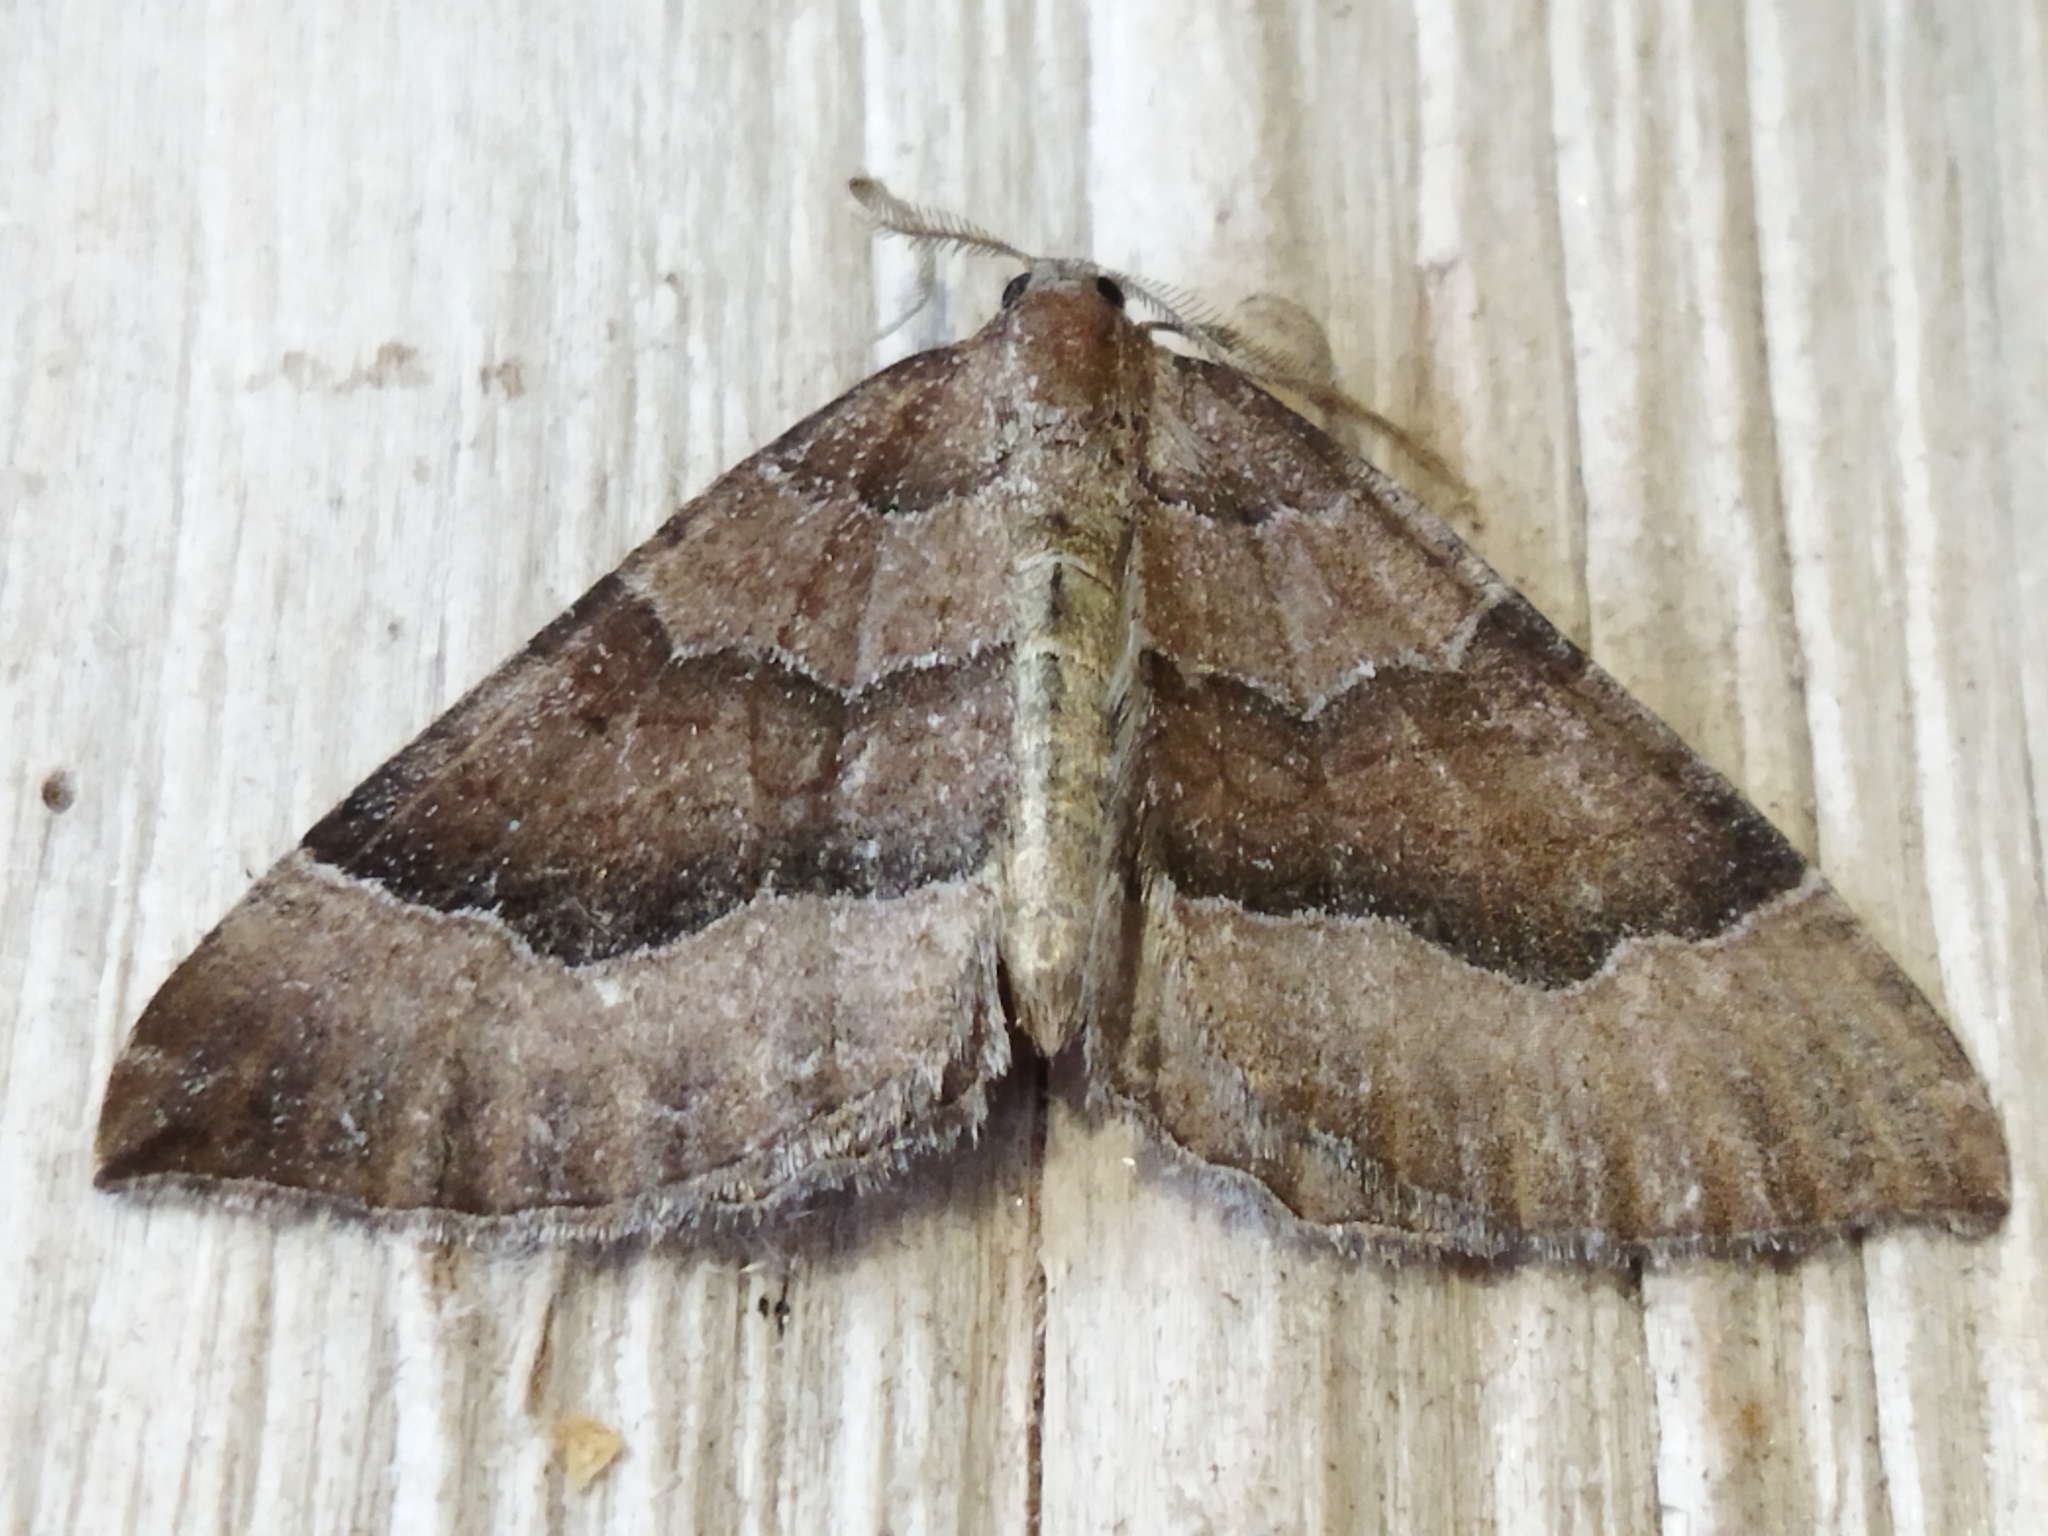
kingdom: Animalia
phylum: Arthropoda
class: Insecta
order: Lepidoptera
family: Geometridae
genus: Larentia
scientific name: Larentia clavaria
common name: Mallow
